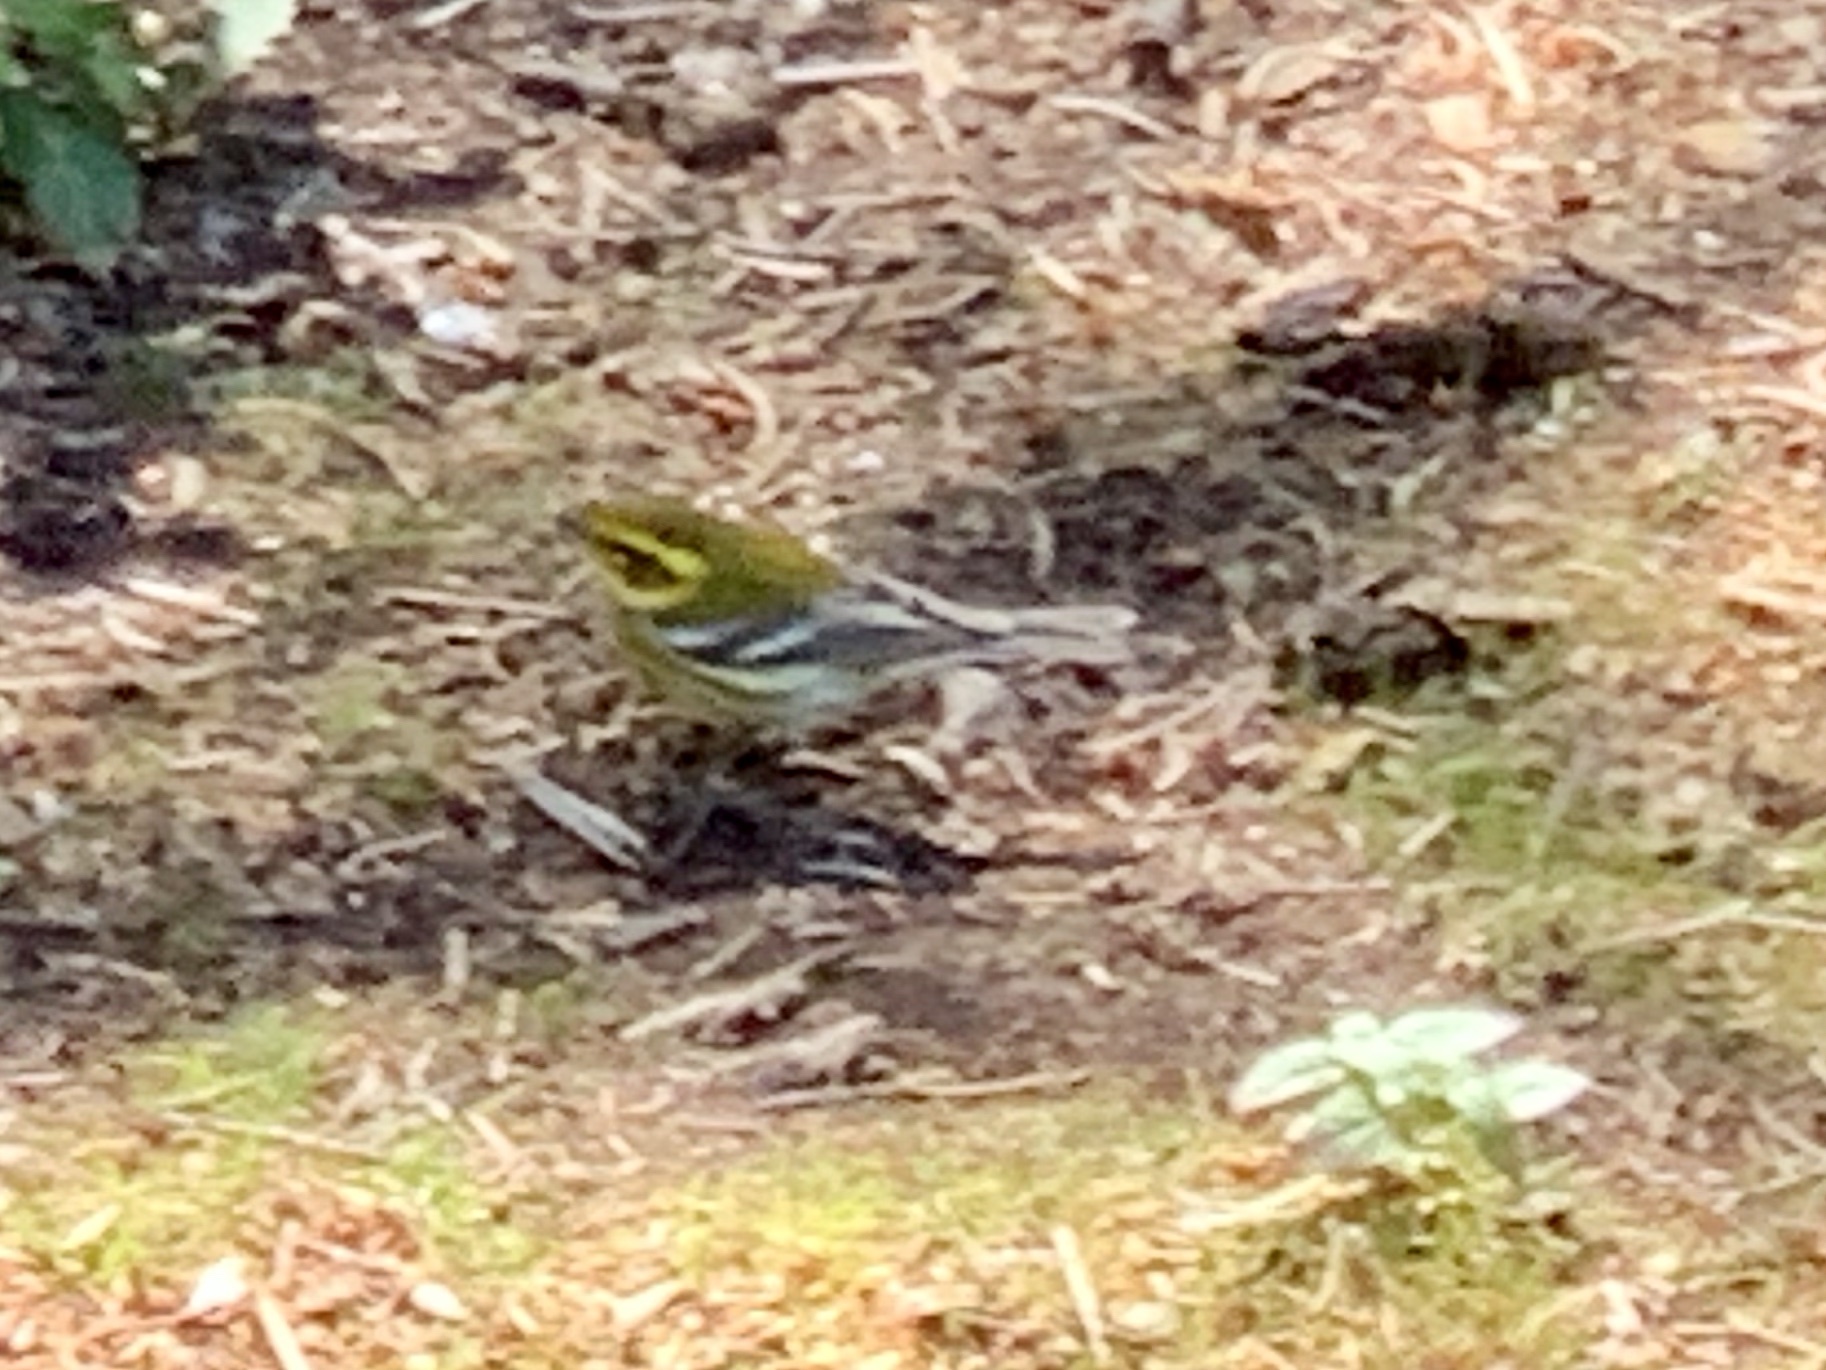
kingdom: Animalia
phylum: Chordata
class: Aves
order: Passeriformes
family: Parulidae
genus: Setophaga
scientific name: Setophaga townsendi
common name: Townsend's warbler
